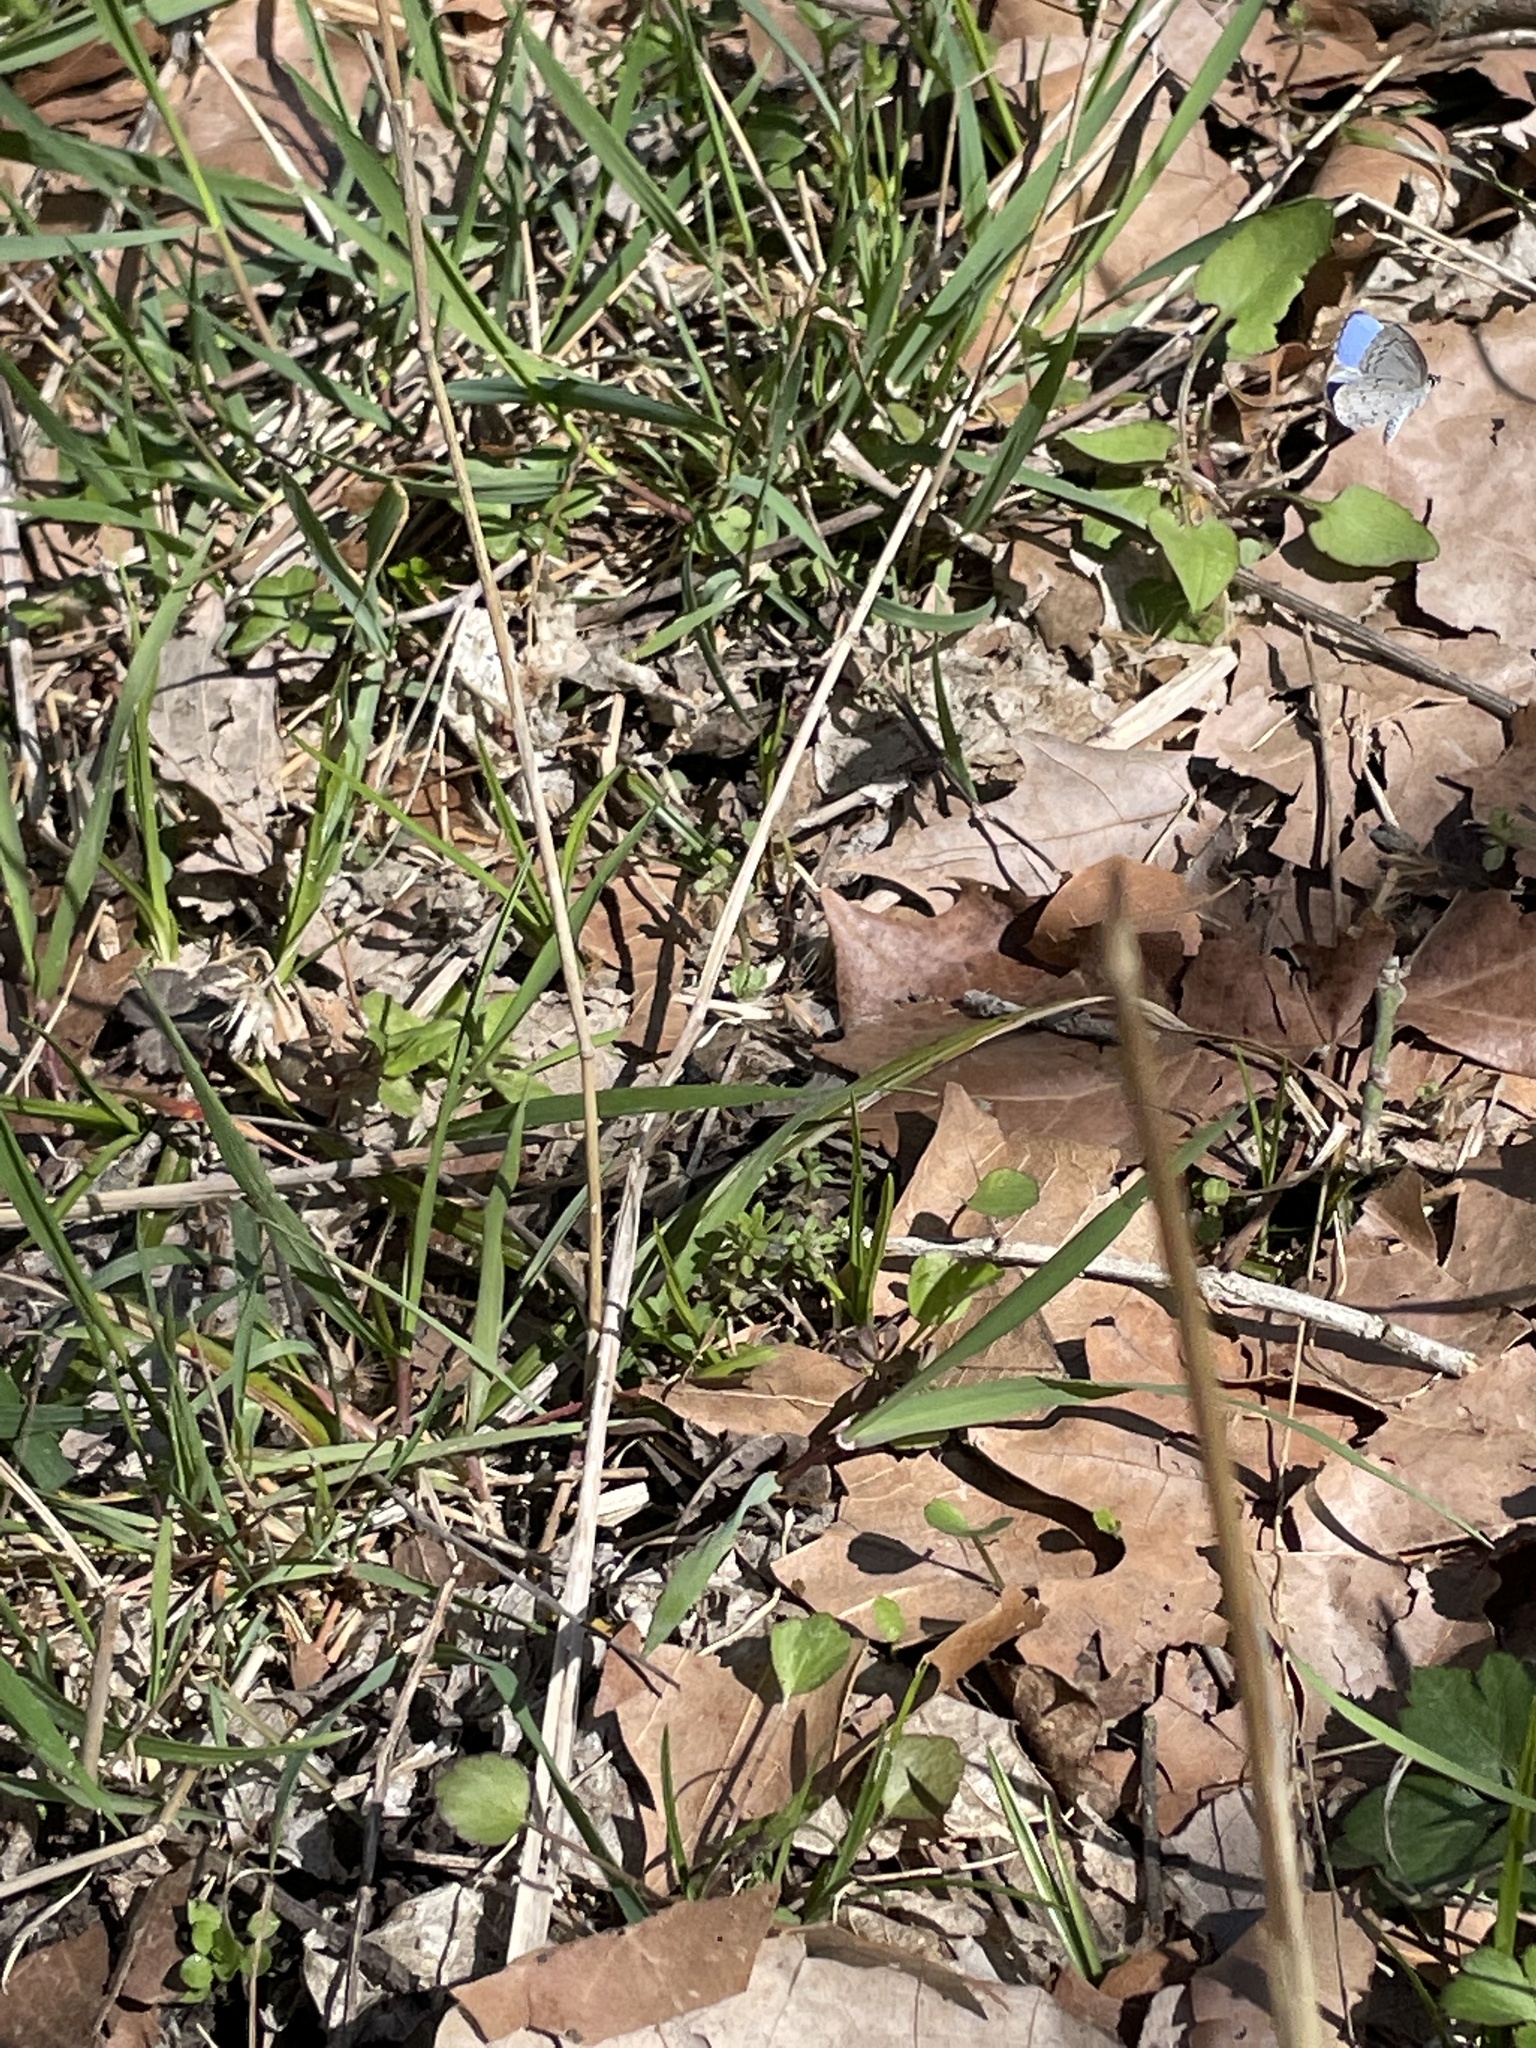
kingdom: Animalia
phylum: Arthropoda
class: Insecta
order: Lepidoptera
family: Lycaenidae
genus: Celastrina
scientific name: Celastrina ladon
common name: Spring azure
